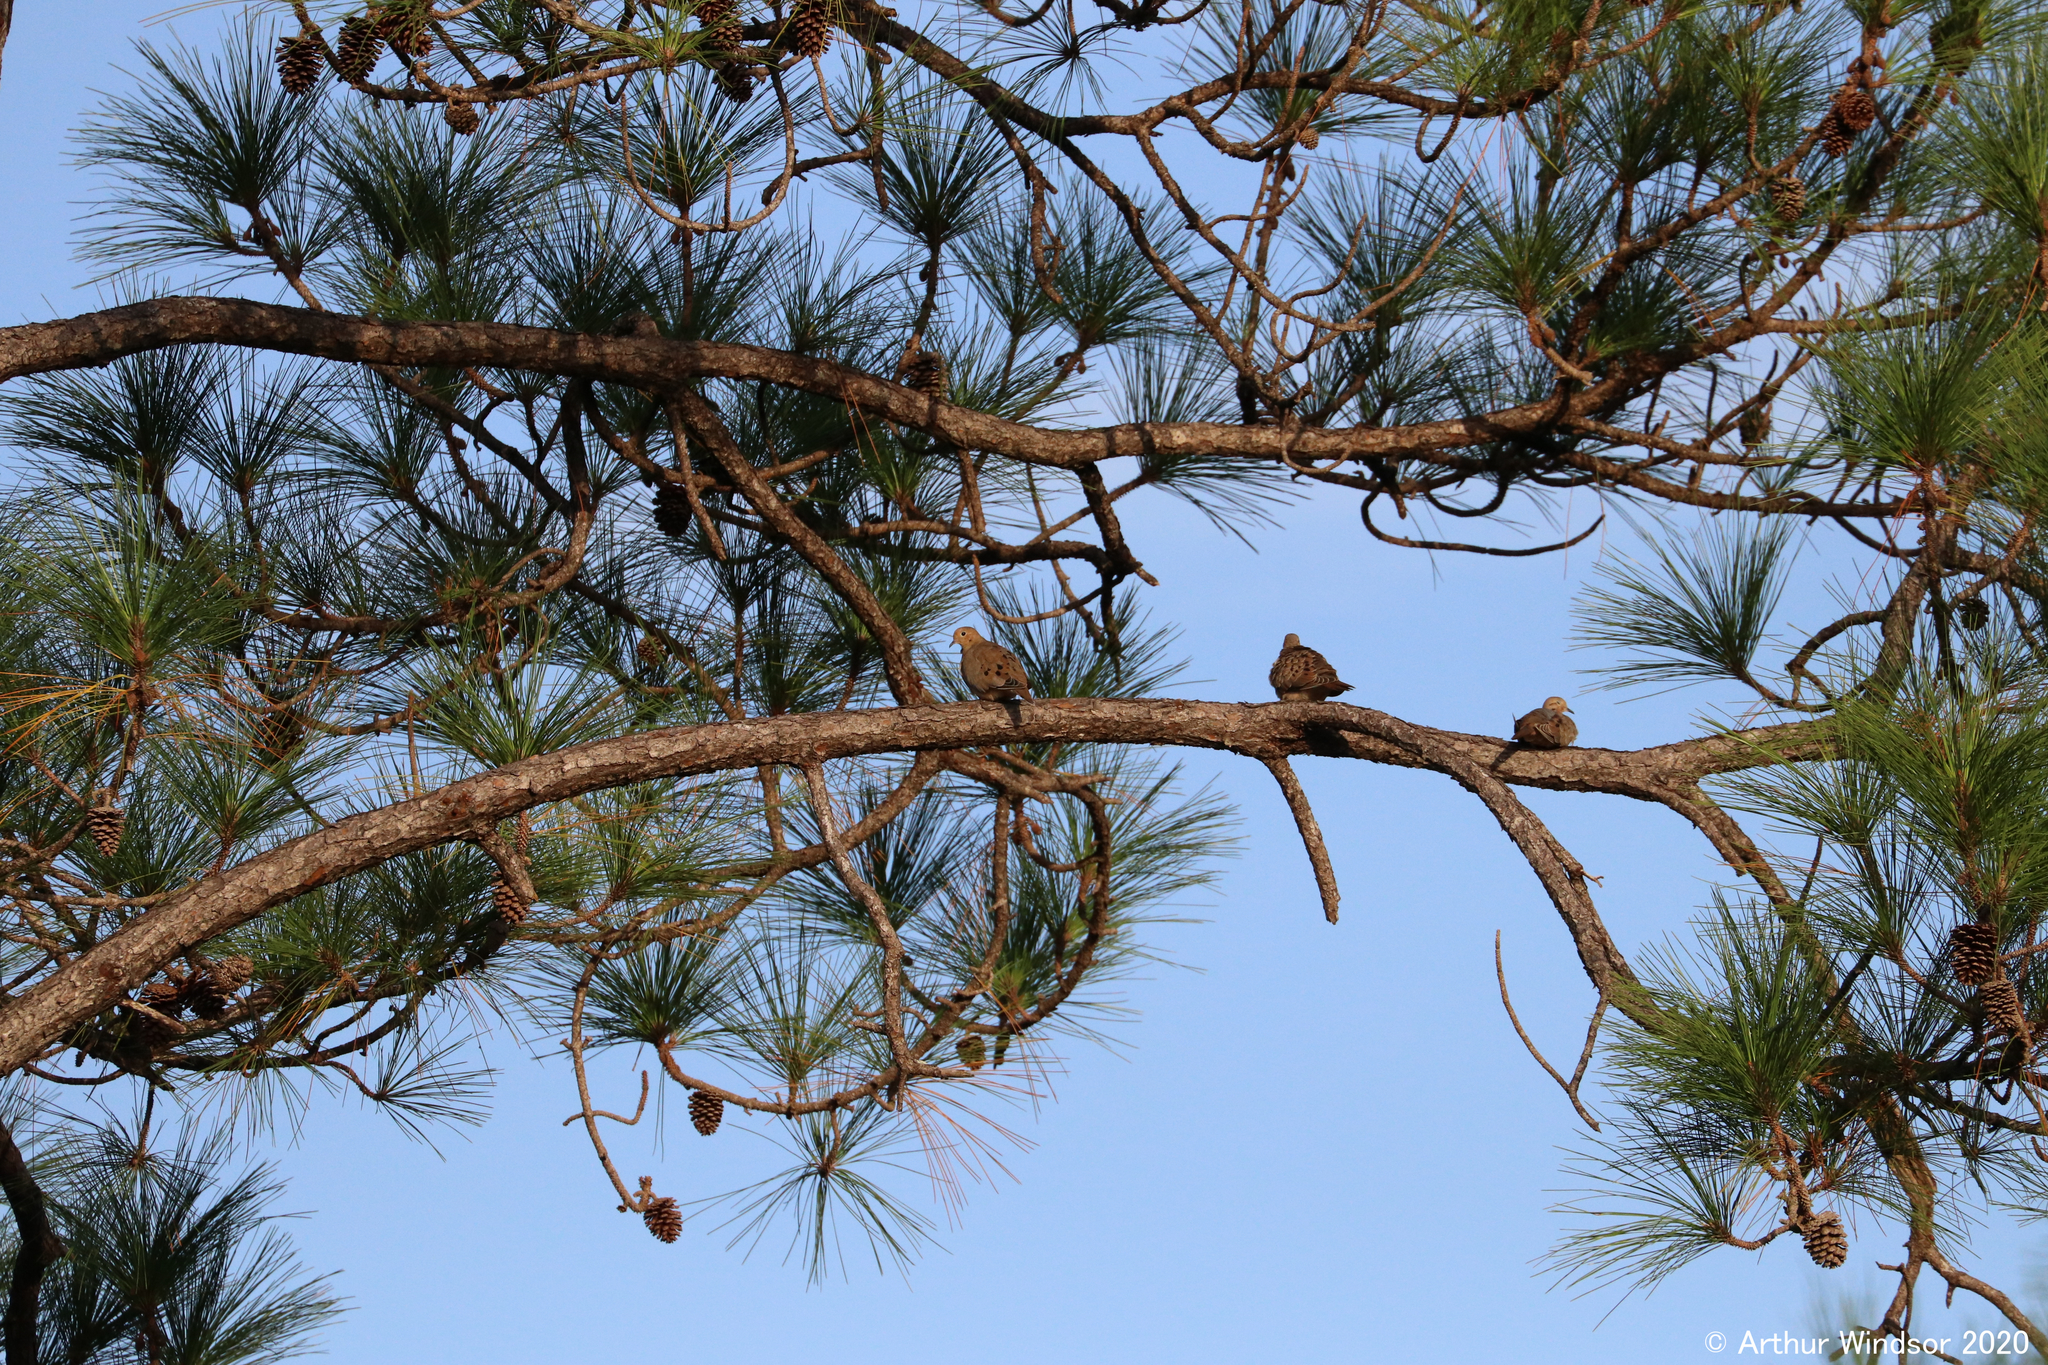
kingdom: Animalia
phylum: Chordata
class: Aves
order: Columbiformes
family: Columbidae
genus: Zenaida
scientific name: Zenaida macroura
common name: Mourning dove
